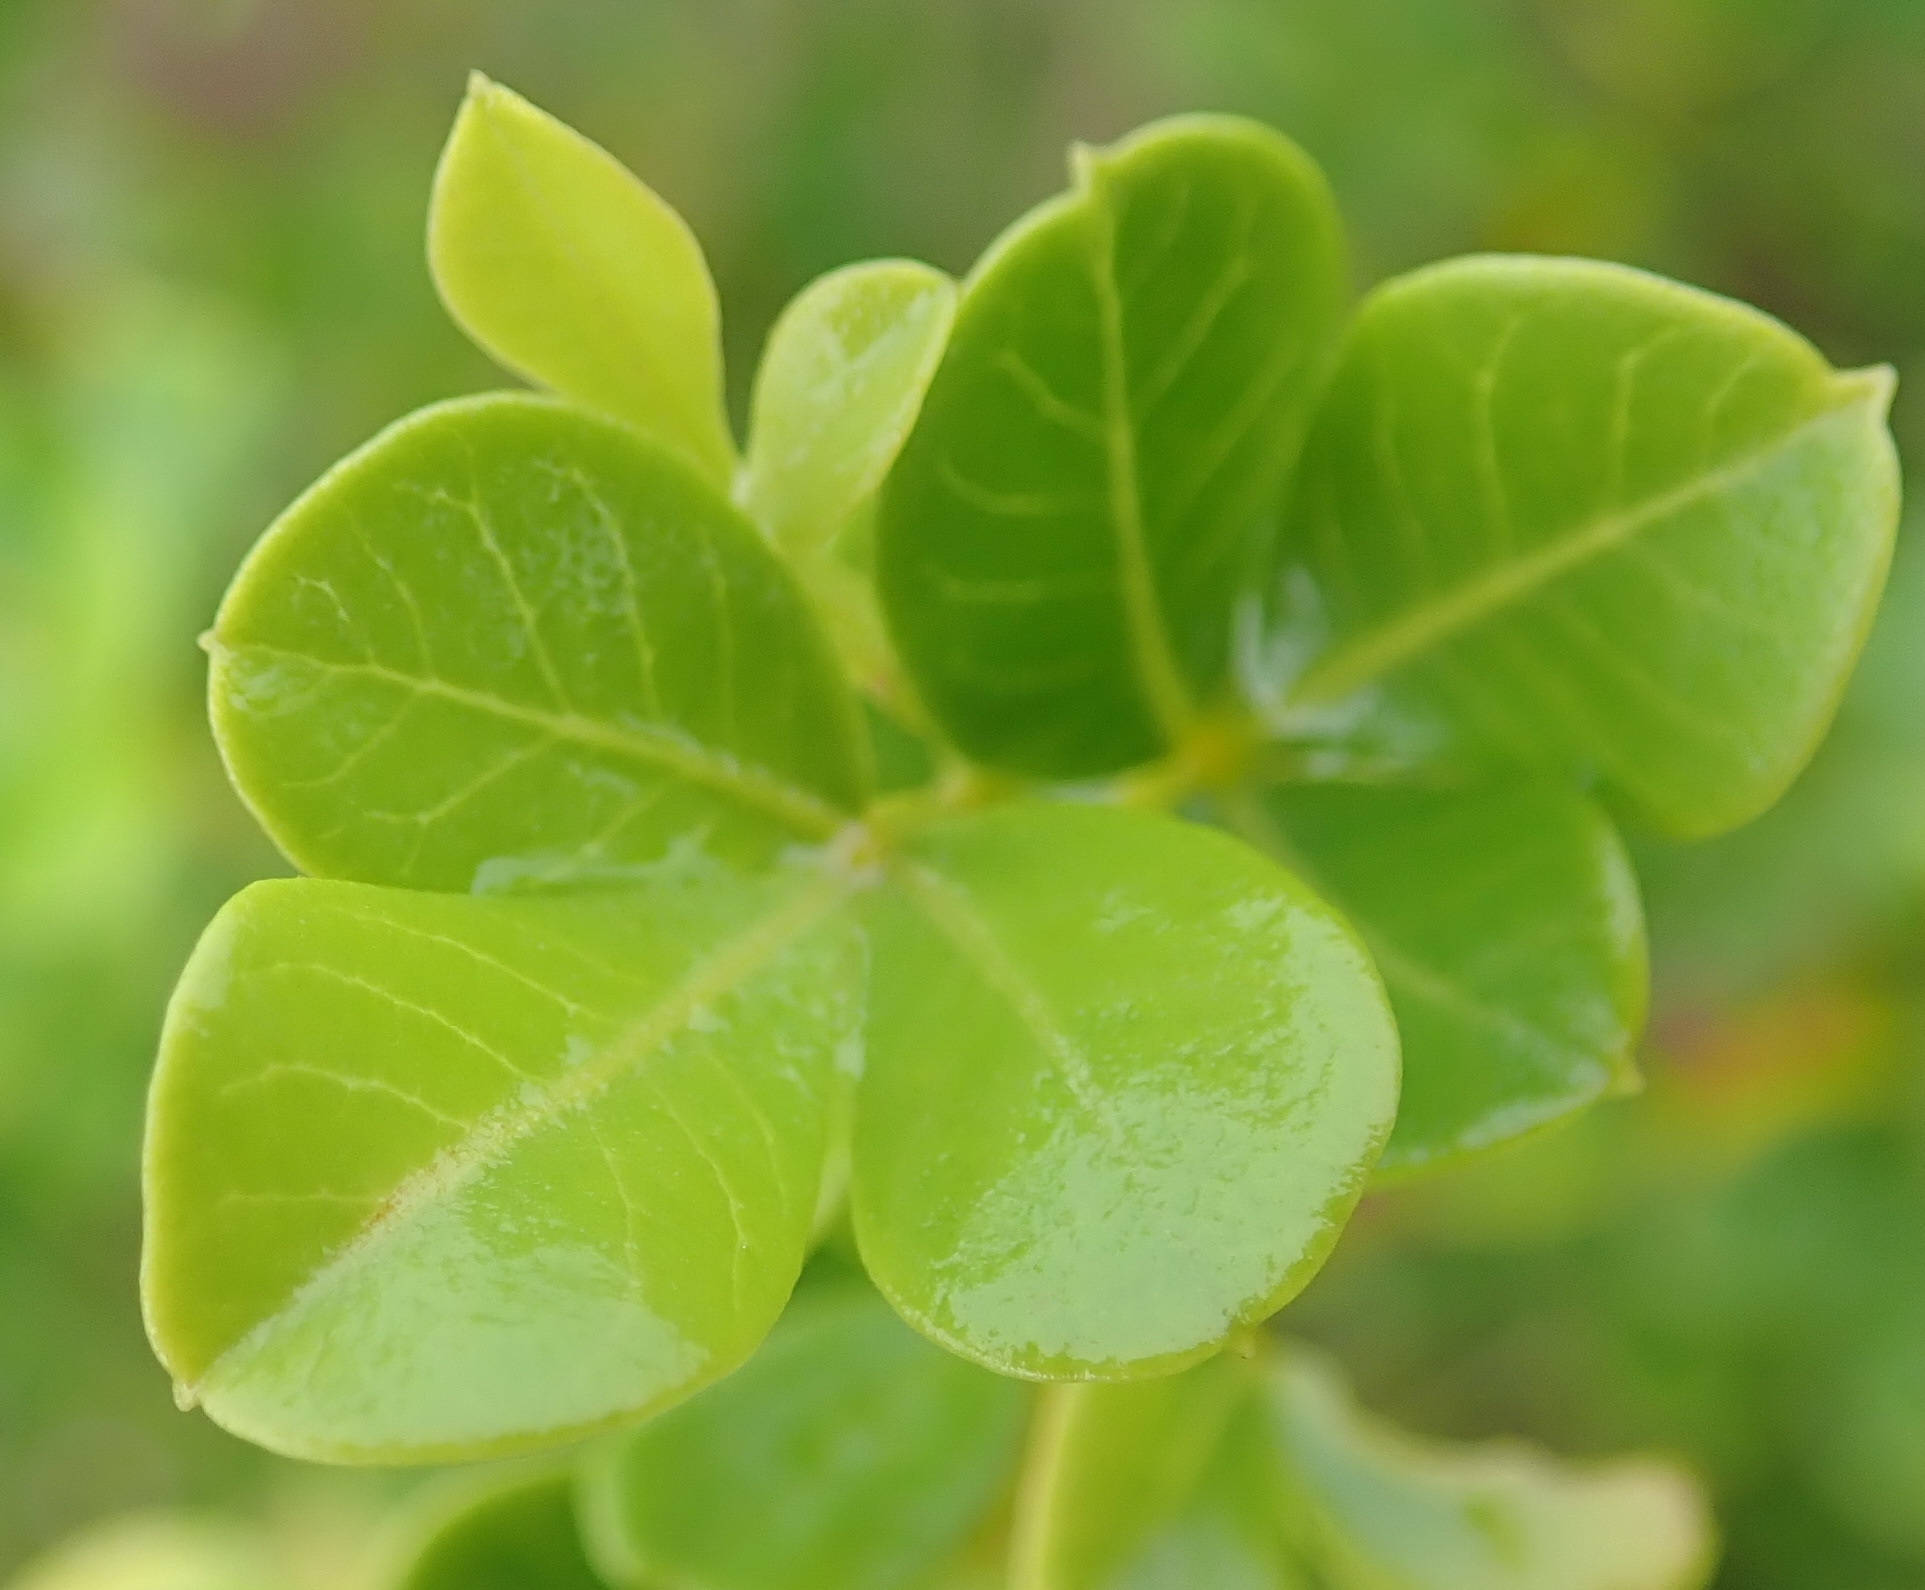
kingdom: Plantae
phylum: Tracheophyta
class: Magnoliopsida
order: Sapindales
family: Anacardiaceae
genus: Searsia
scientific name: Searsia glauca
